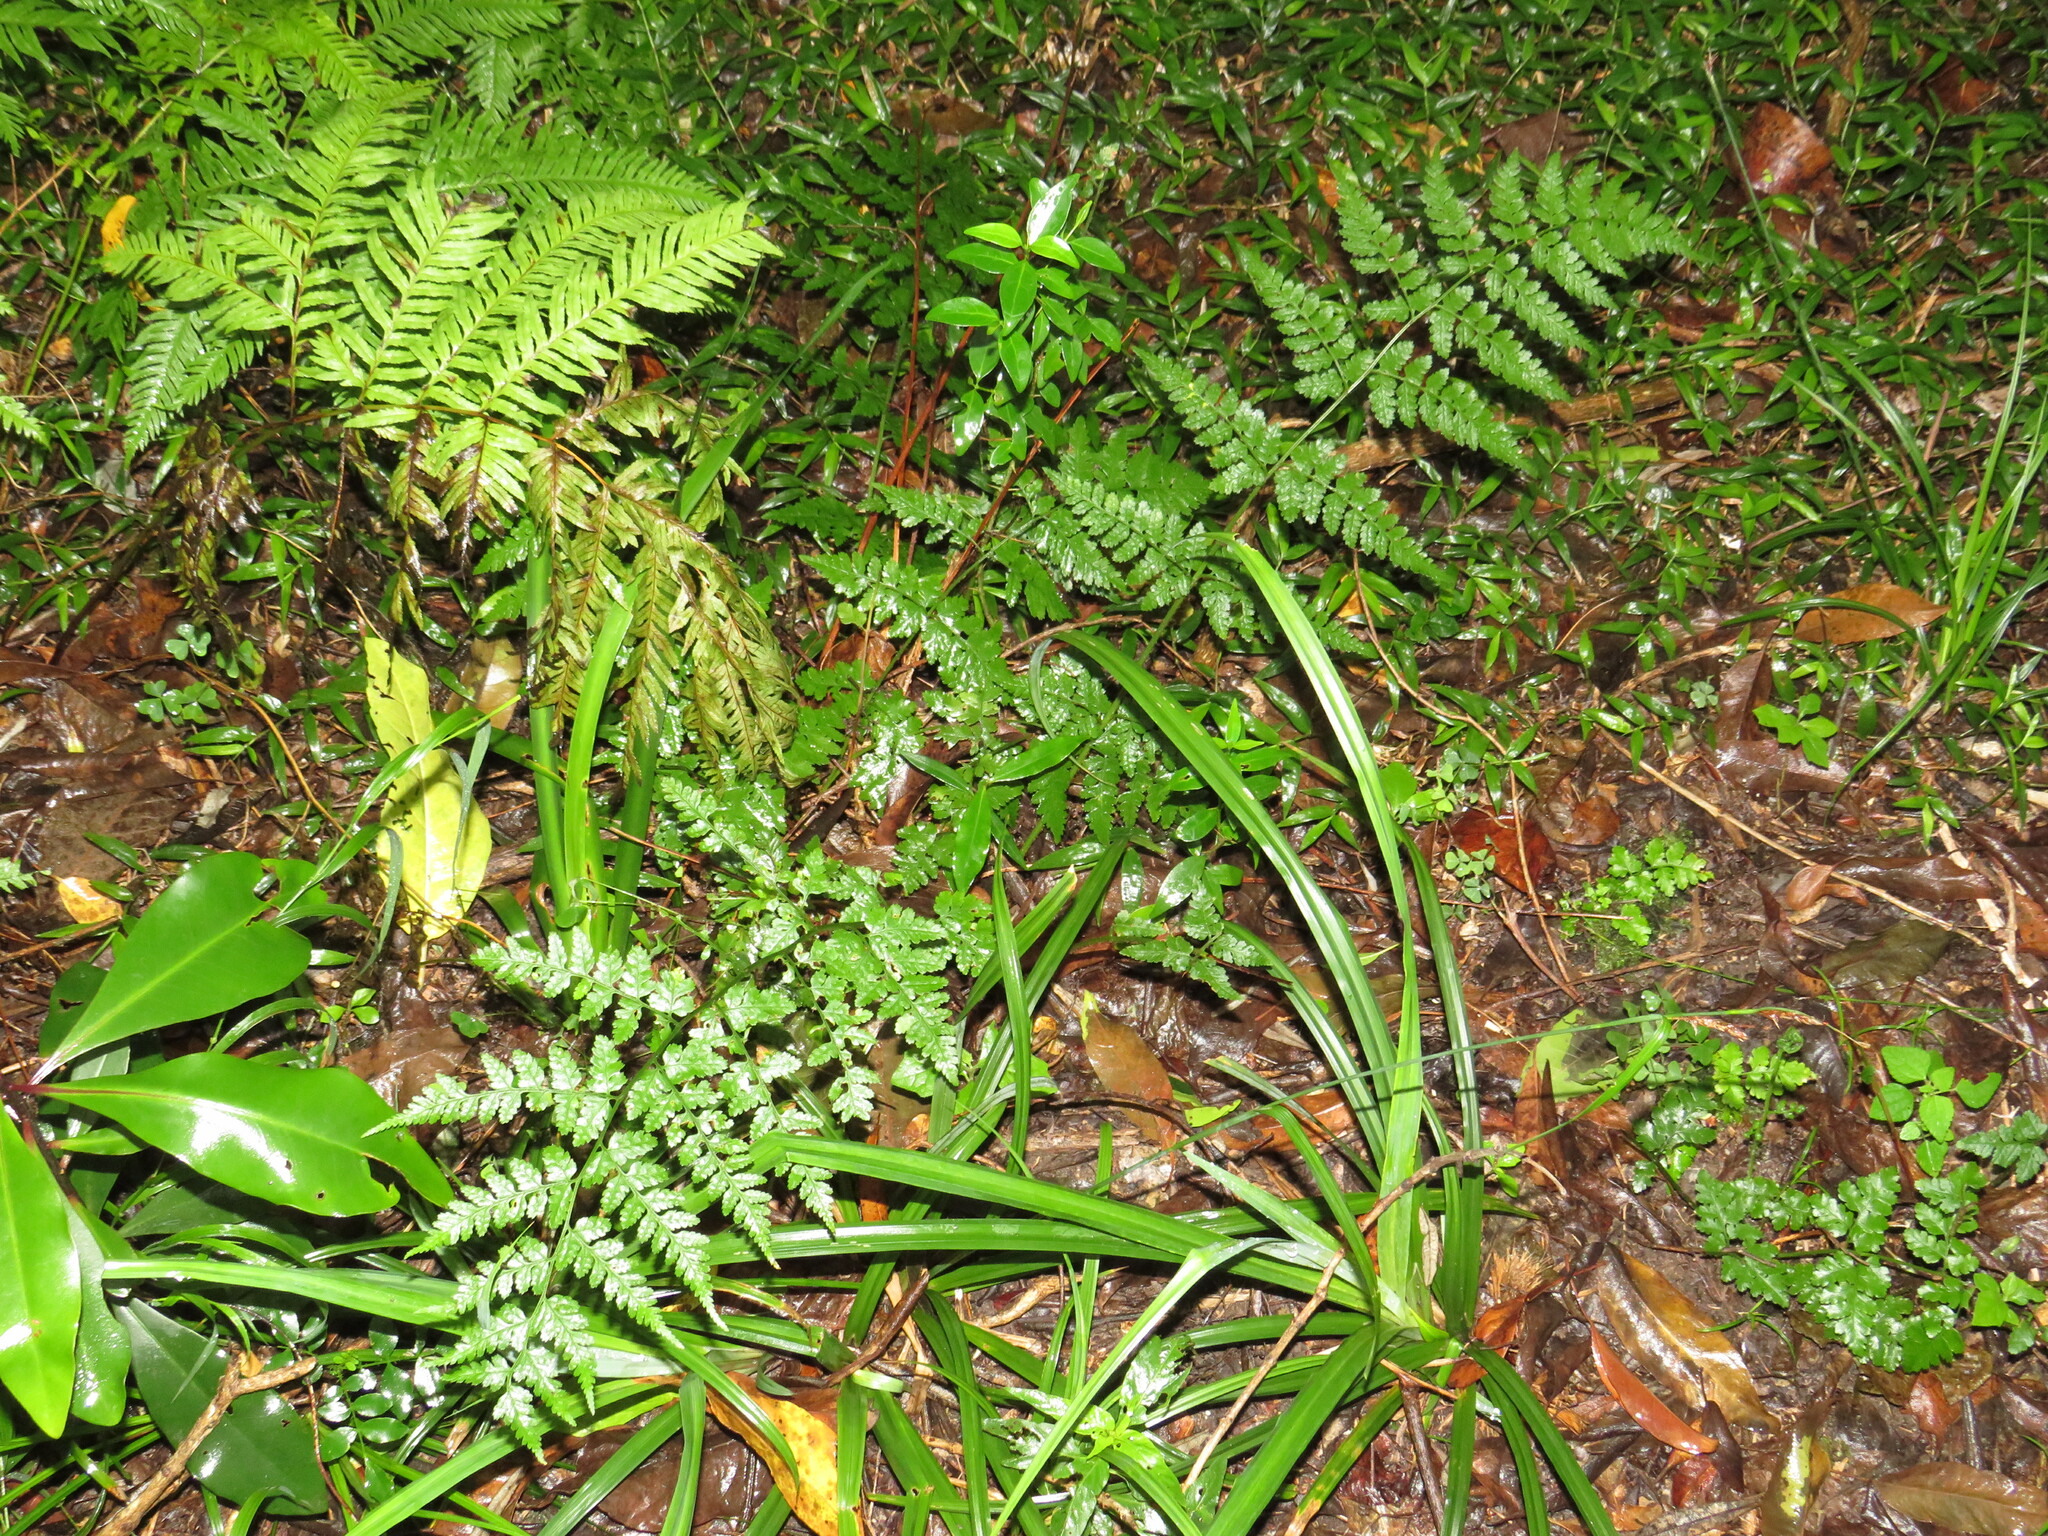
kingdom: Plantae
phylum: Tracheophyta
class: Polypodiopsida
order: Polypodiales
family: Dryopteridaceae
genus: Dryopteris
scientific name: Dryopteris inaequalis
